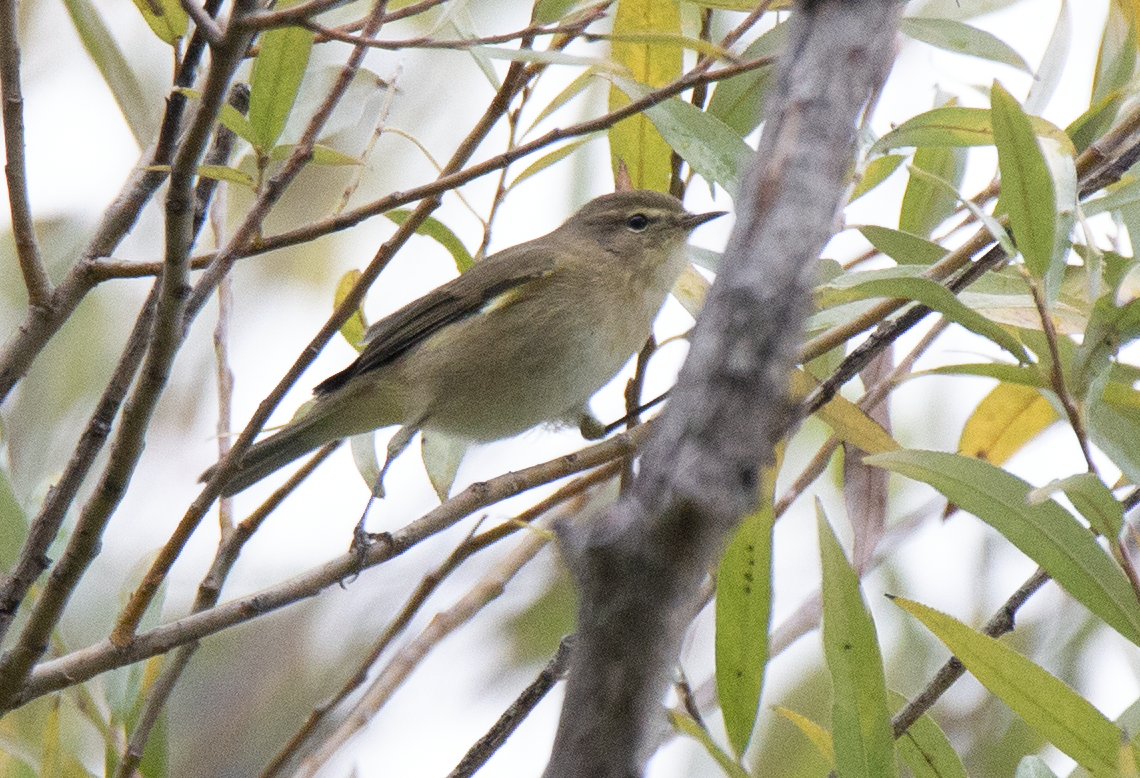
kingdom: Animalia
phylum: Chordata
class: Aves
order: Passeriformes
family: Phylloscopidae
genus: Phylloscopus
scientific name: Phylloscopus collybita
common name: Common chiffchaff
